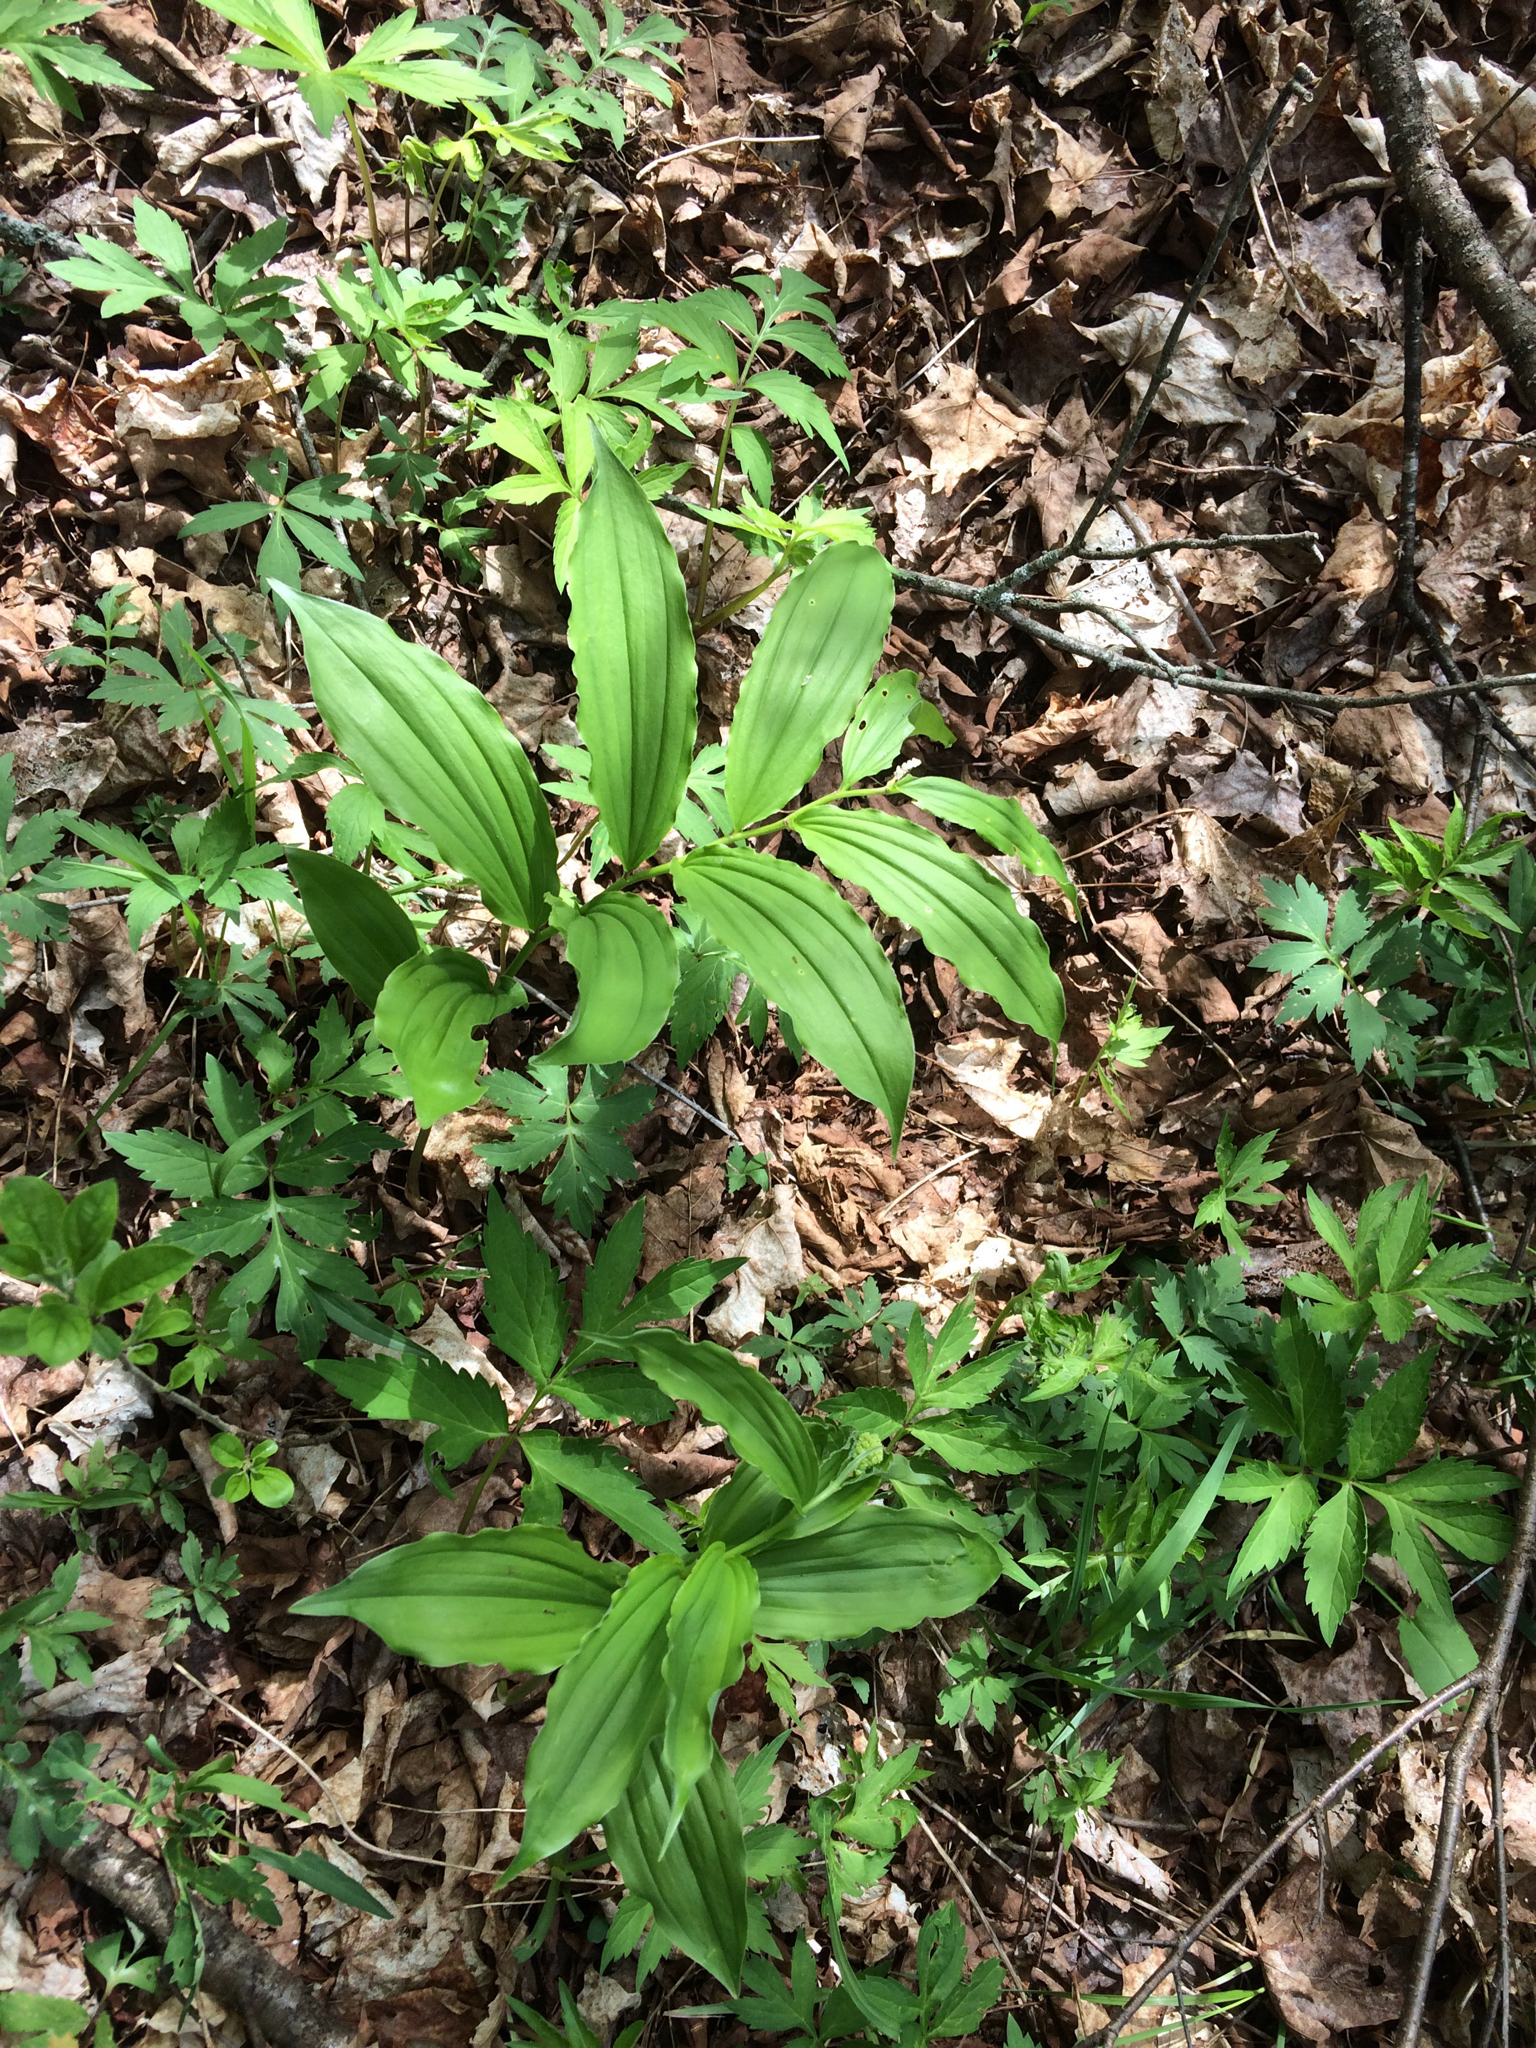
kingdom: Plantae
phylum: Tracheophyta
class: Liliopsida
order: Asparagales
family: Asparagaceae
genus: Maianthemum
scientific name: Maianthemum racemosum
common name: False spikenard
